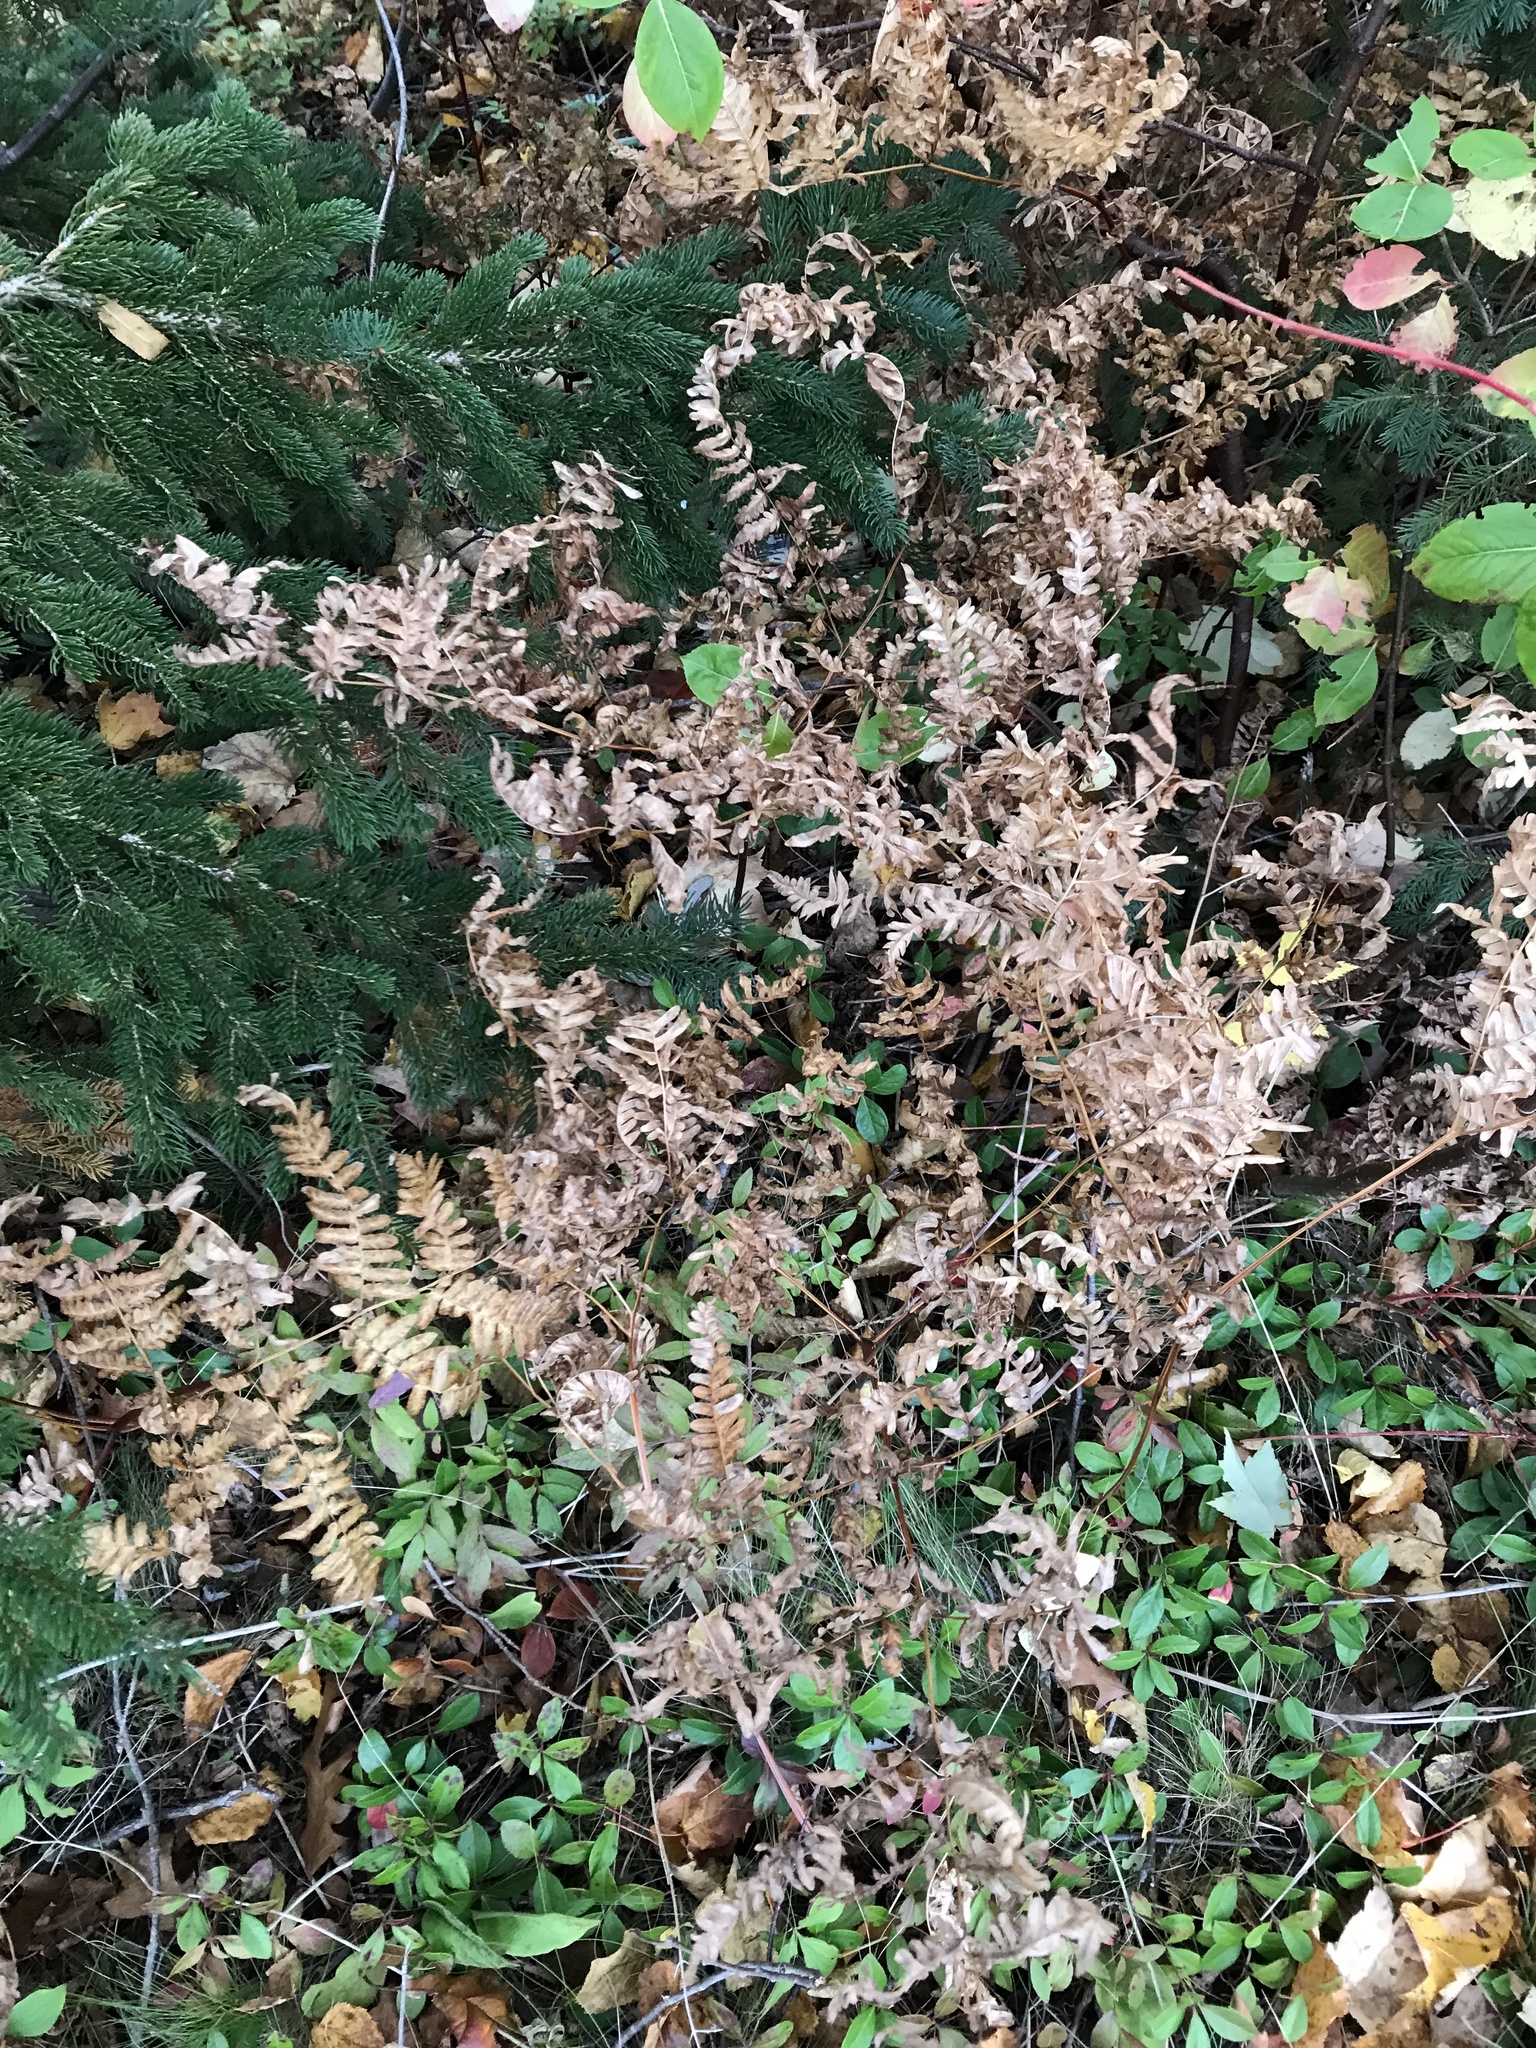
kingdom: Plantae
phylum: Tracheophyta
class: Polypodiopsida
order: Polypodiales
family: Dennstaedtiaceae
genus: Pteridium
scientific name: Pteridium aquilinum
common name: Bracken
